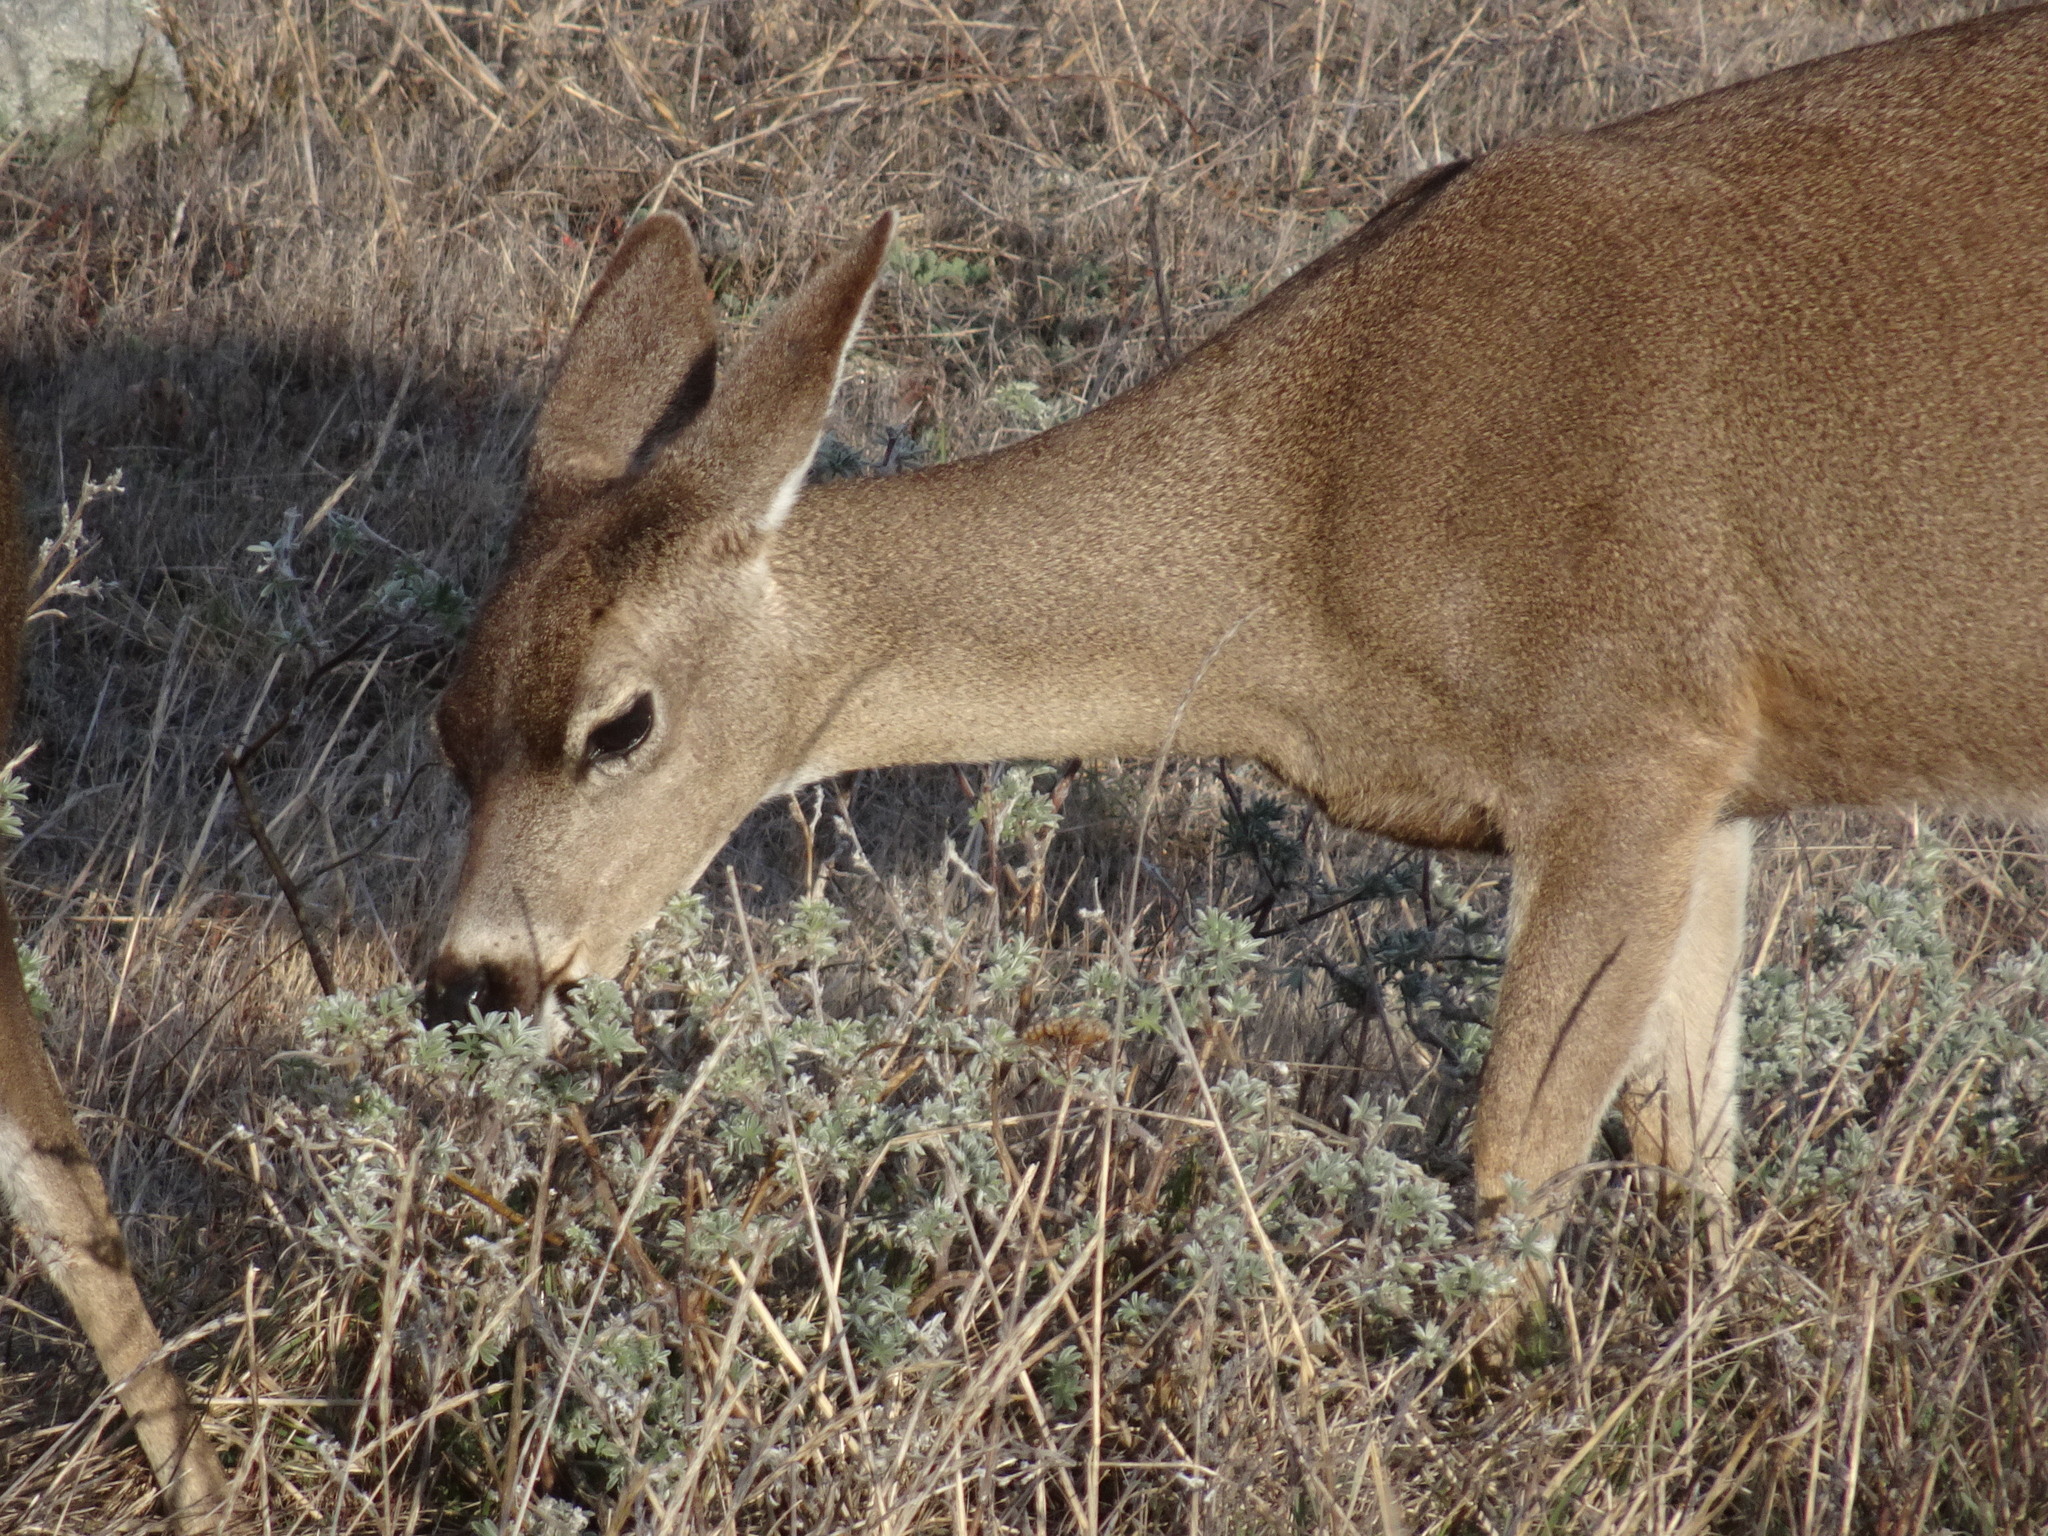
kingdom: Animalia
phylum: Chordata
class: Mammalia
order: Artiodactyla
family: Cervidae
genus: Odocoileus
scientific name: Odocoileus hemionus
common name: Mule deer
